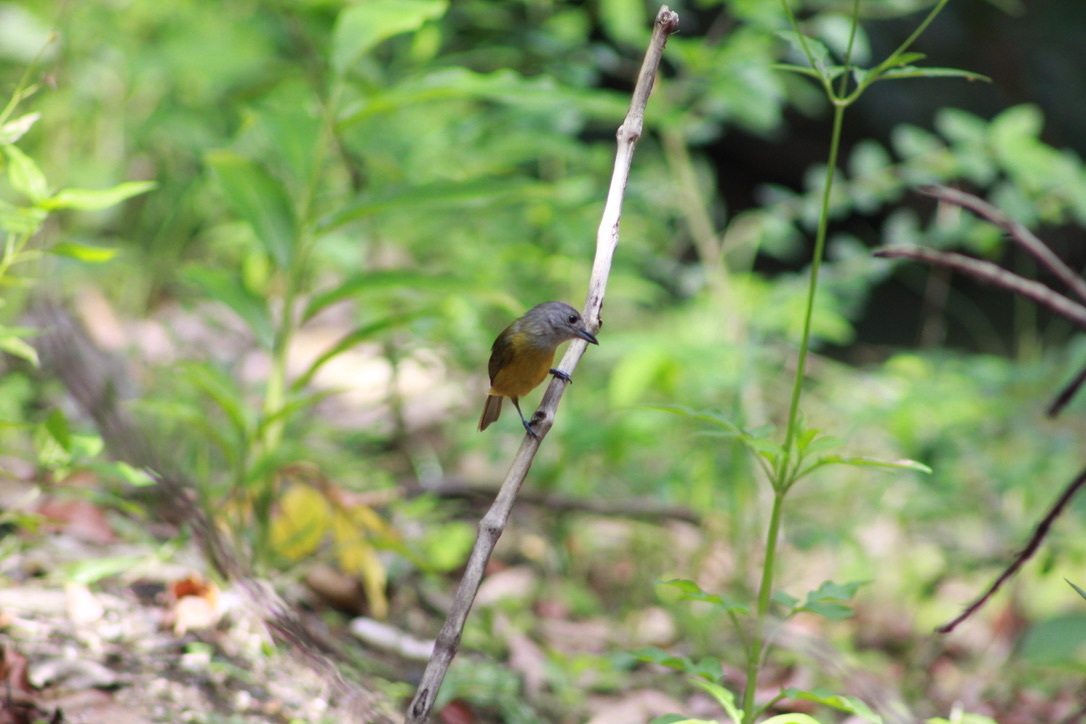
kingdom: Animalia
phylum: Chordata
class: Aves
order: Passeriformes
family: Thraupidae
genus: Loriotus
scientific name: Loriotus luctuosus
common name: White-shouldered tanager
